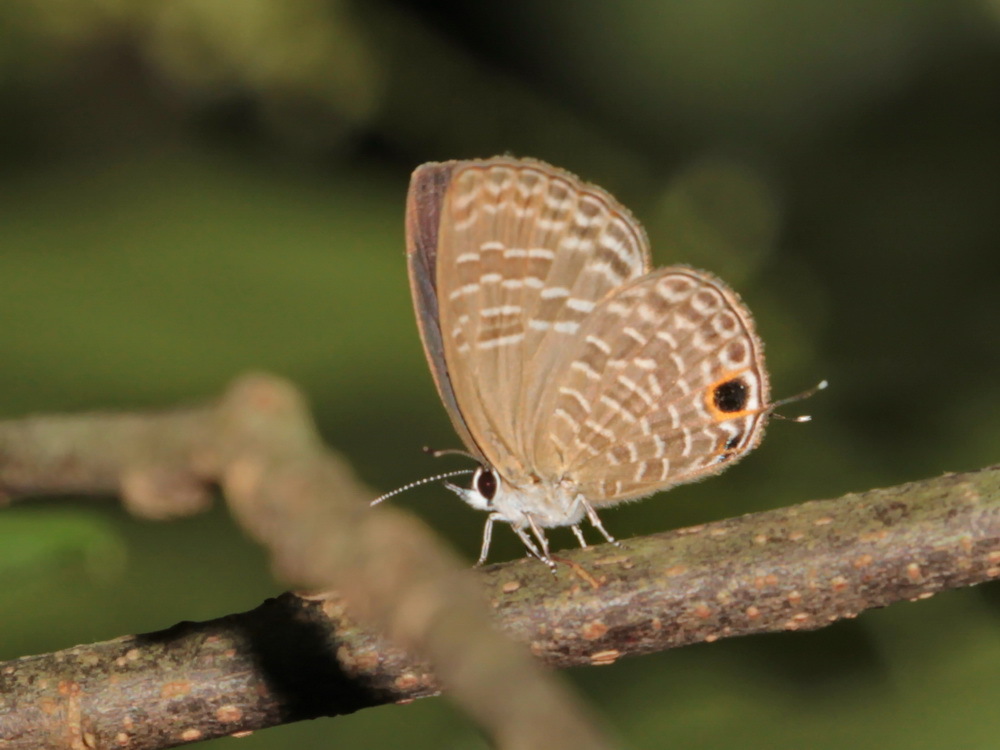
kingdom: Animalia
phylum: Arthropoda
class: Insecta
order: Lepidoptera
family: Lycaenidae
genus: Jamides
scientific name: Jamides bochus
